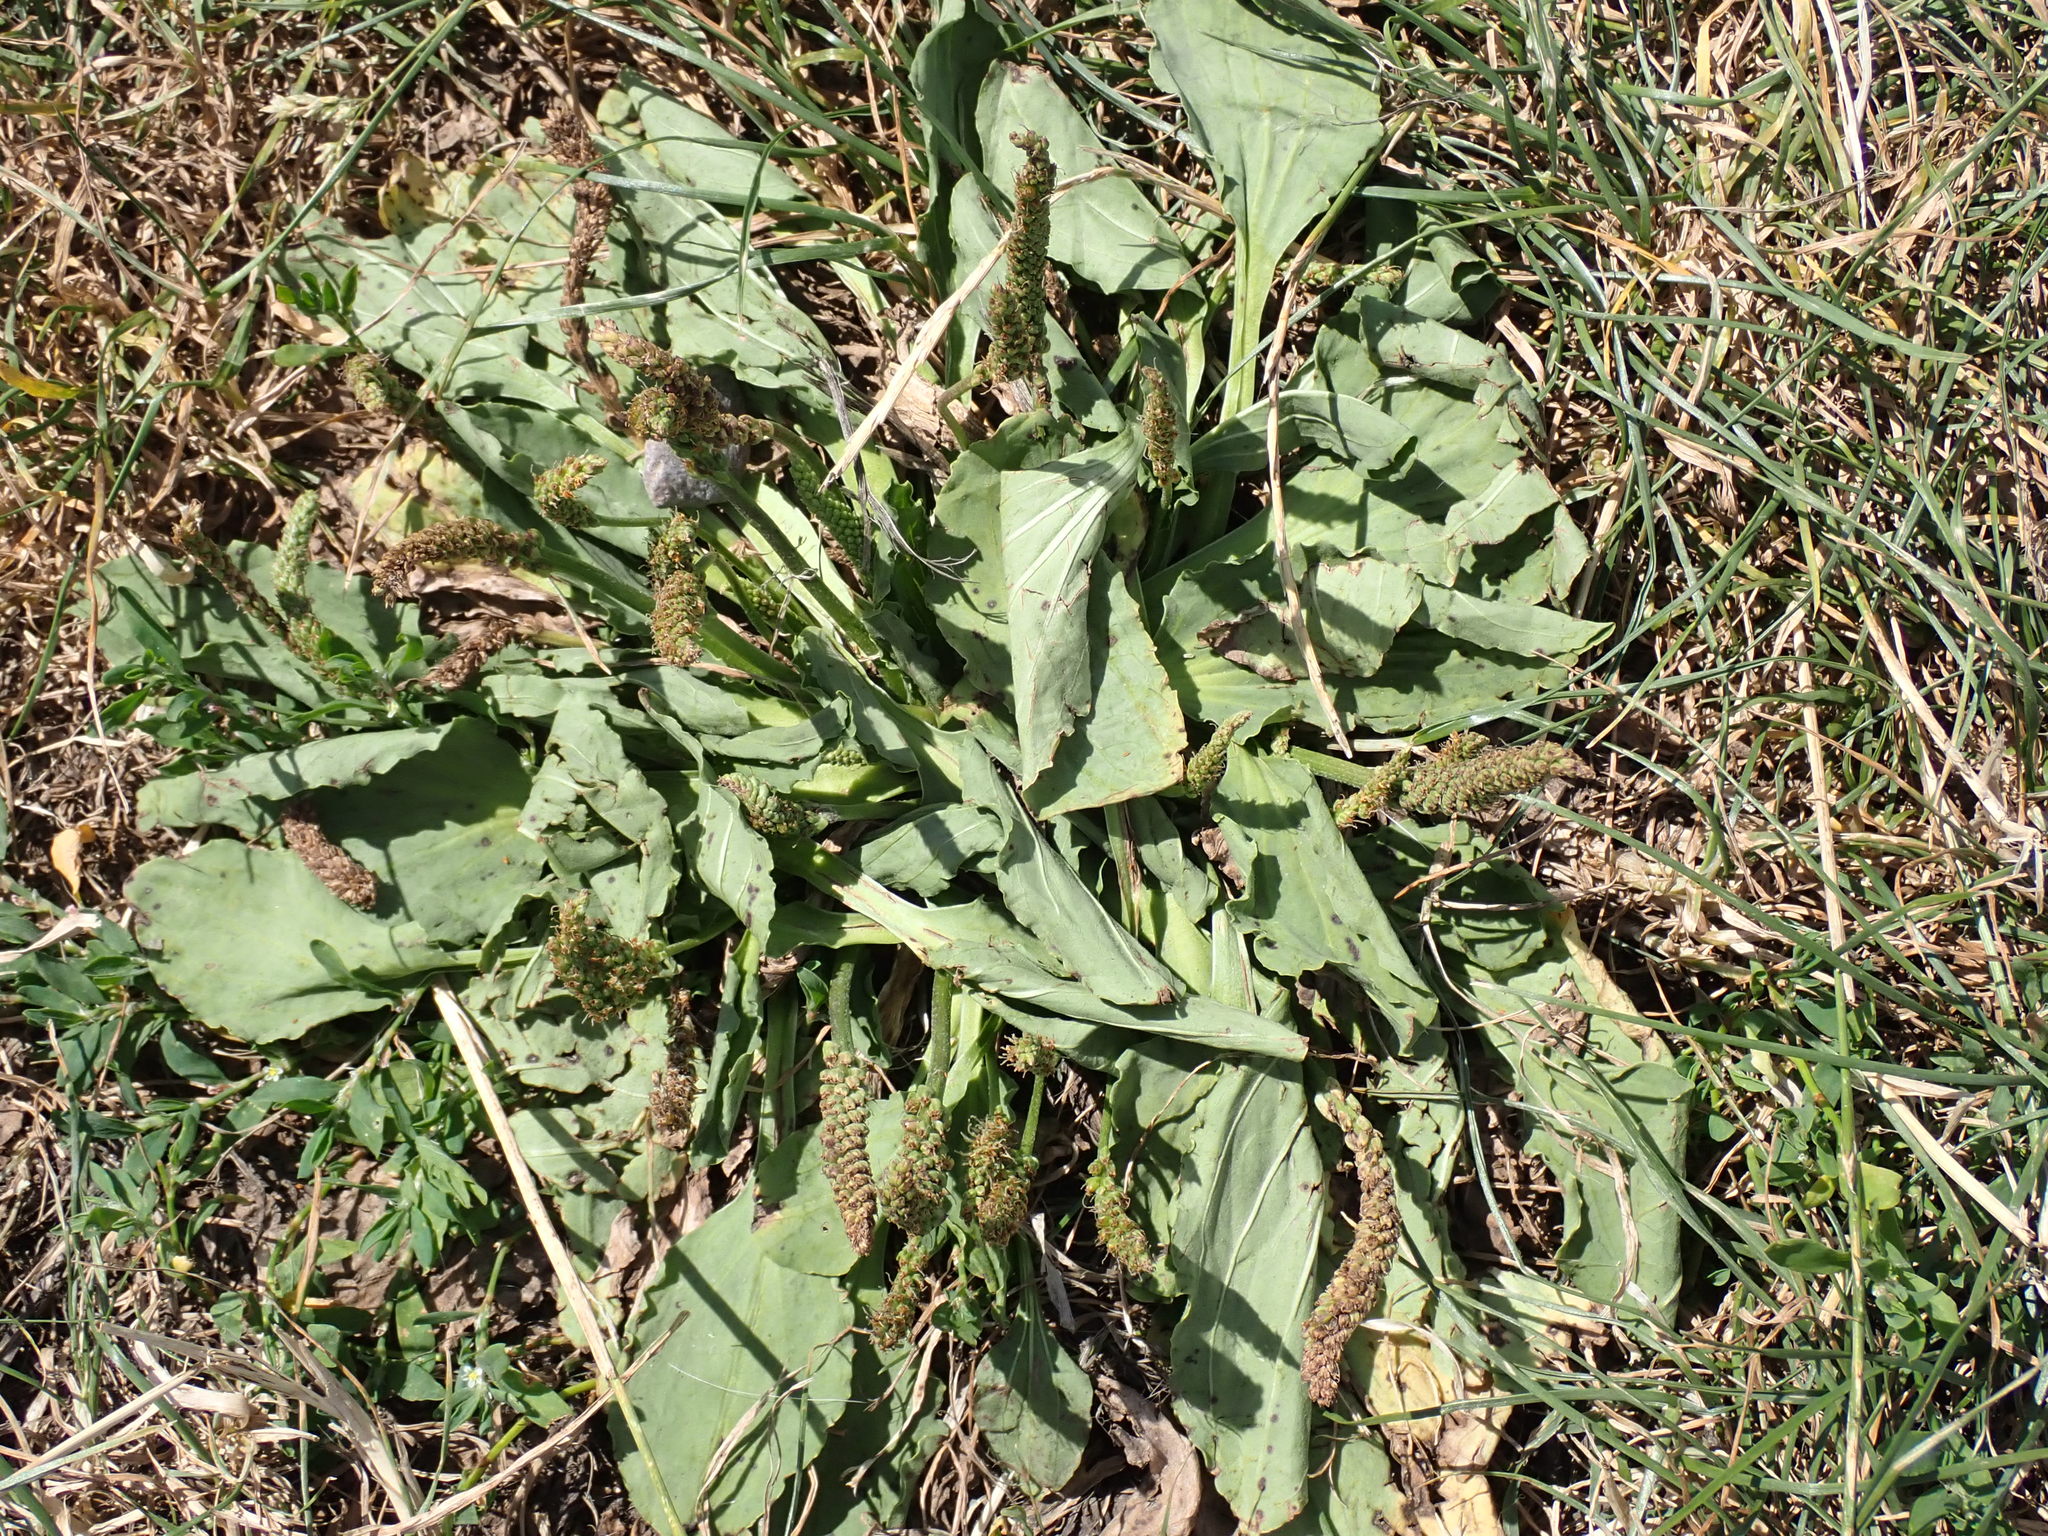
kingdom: Plantae
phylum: Tracheophyta
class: Magnoliopsida
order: Lamiales
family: Plantaginaceae
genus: Plantago
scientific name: Plantago major
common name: Common plantain
